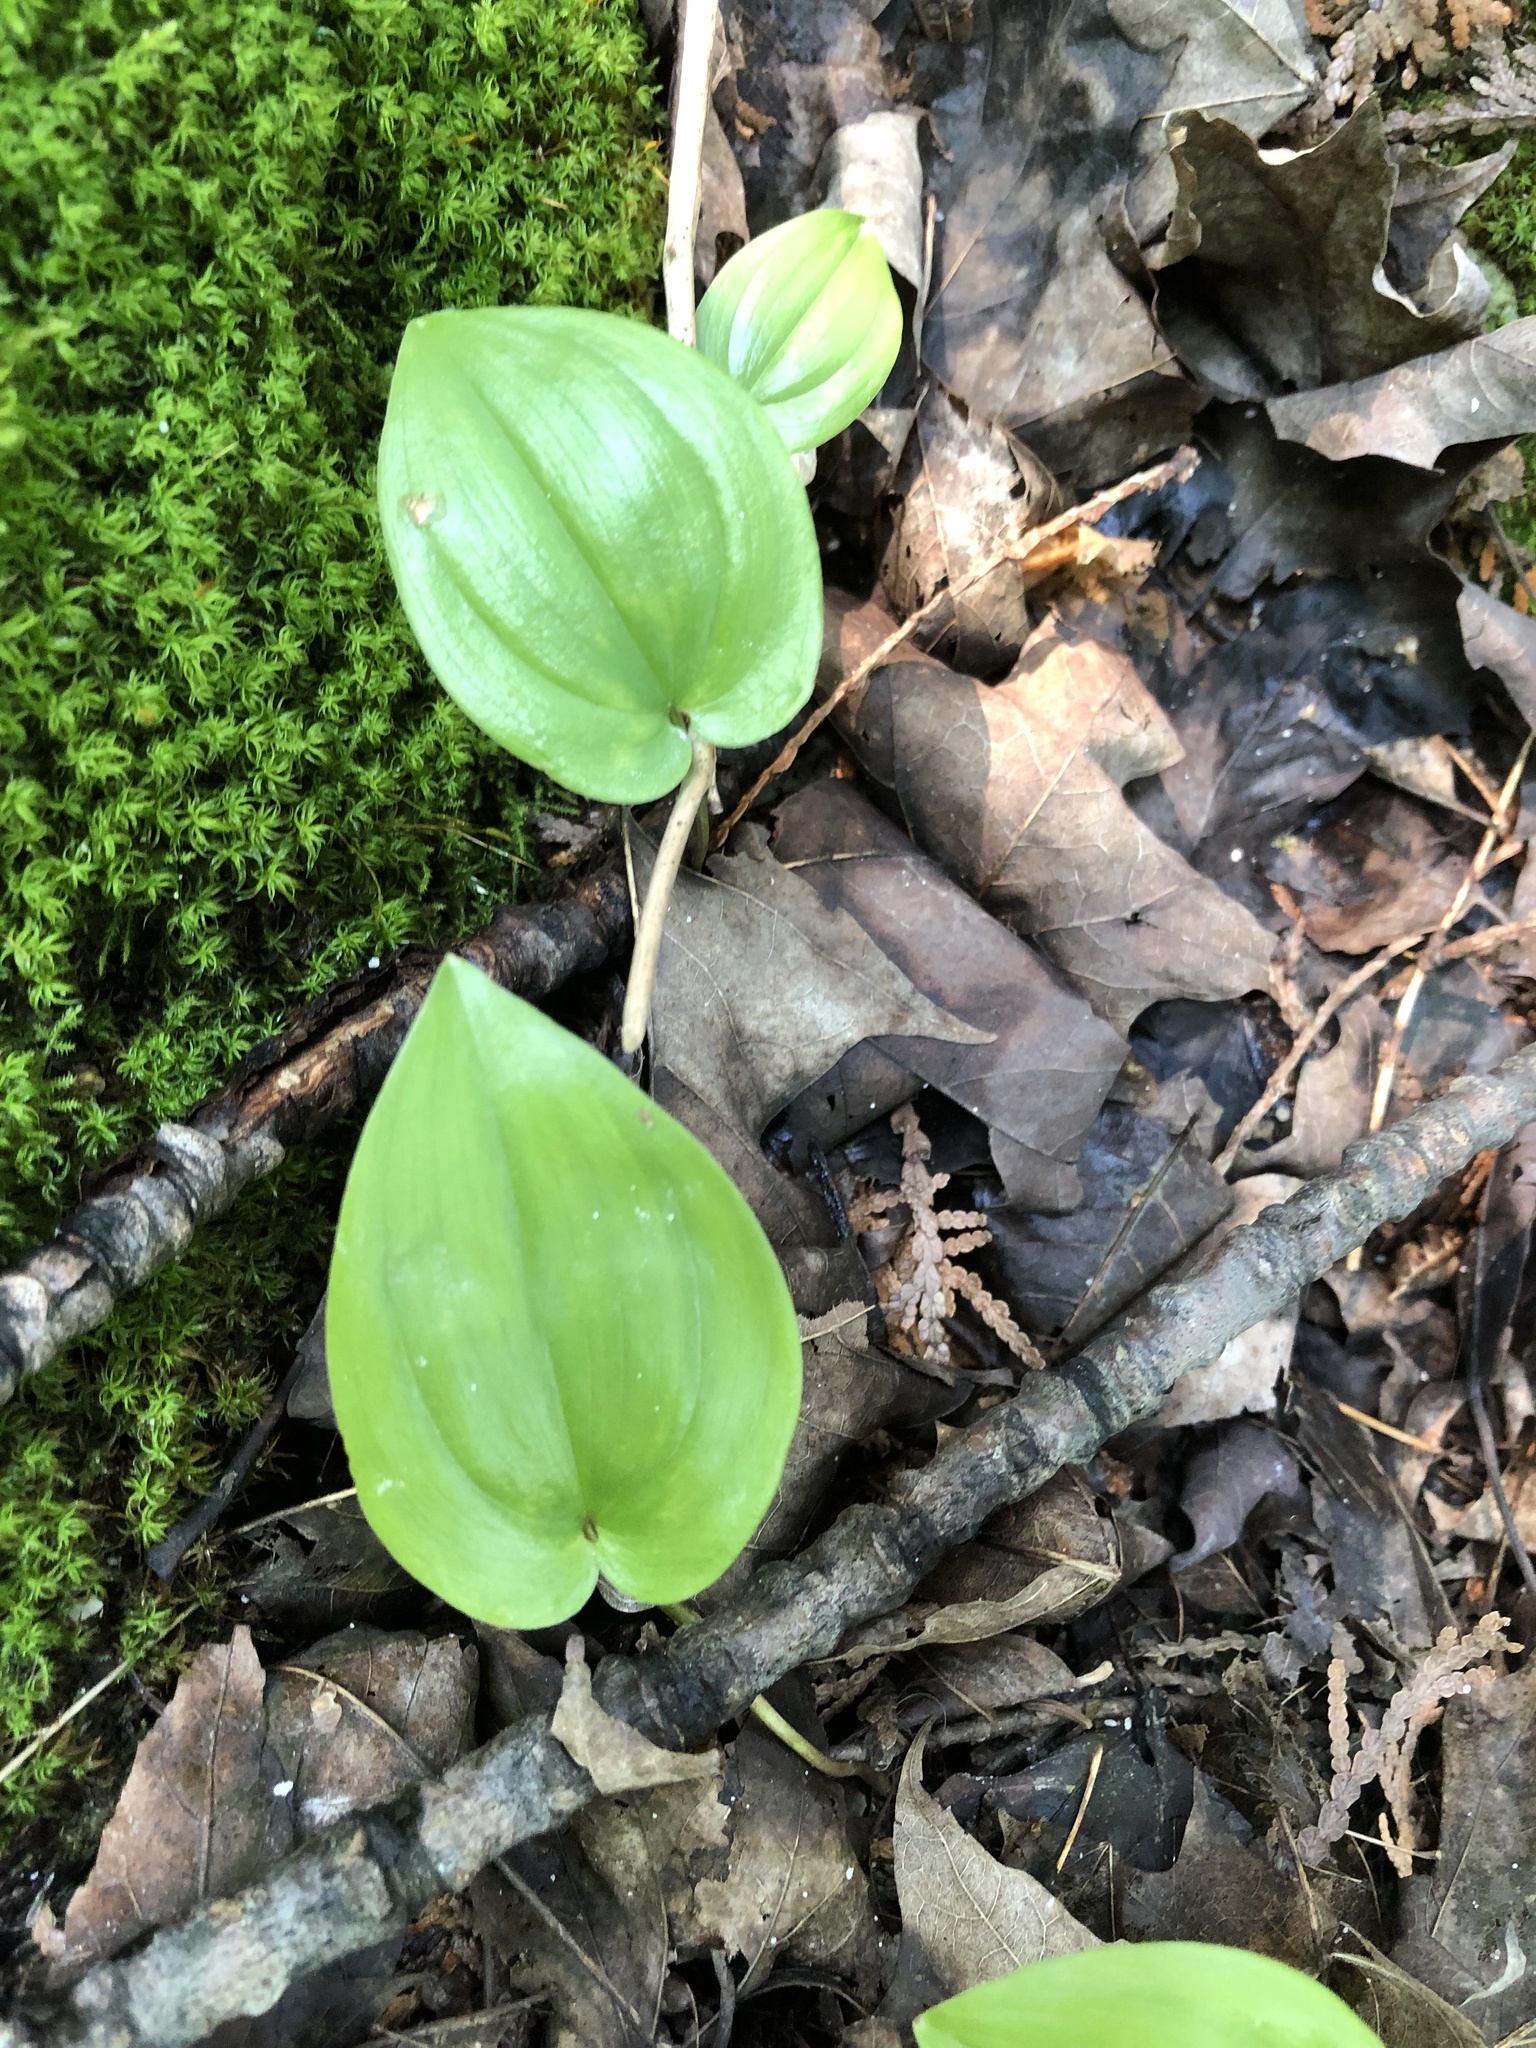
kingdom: Plantae
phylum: Tracheophyta
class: Liliopsida
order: Asparagales
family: Asparagaceae
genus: Maianthemum
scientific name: Maianthemum canadense
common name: False lily-of-the-valley
